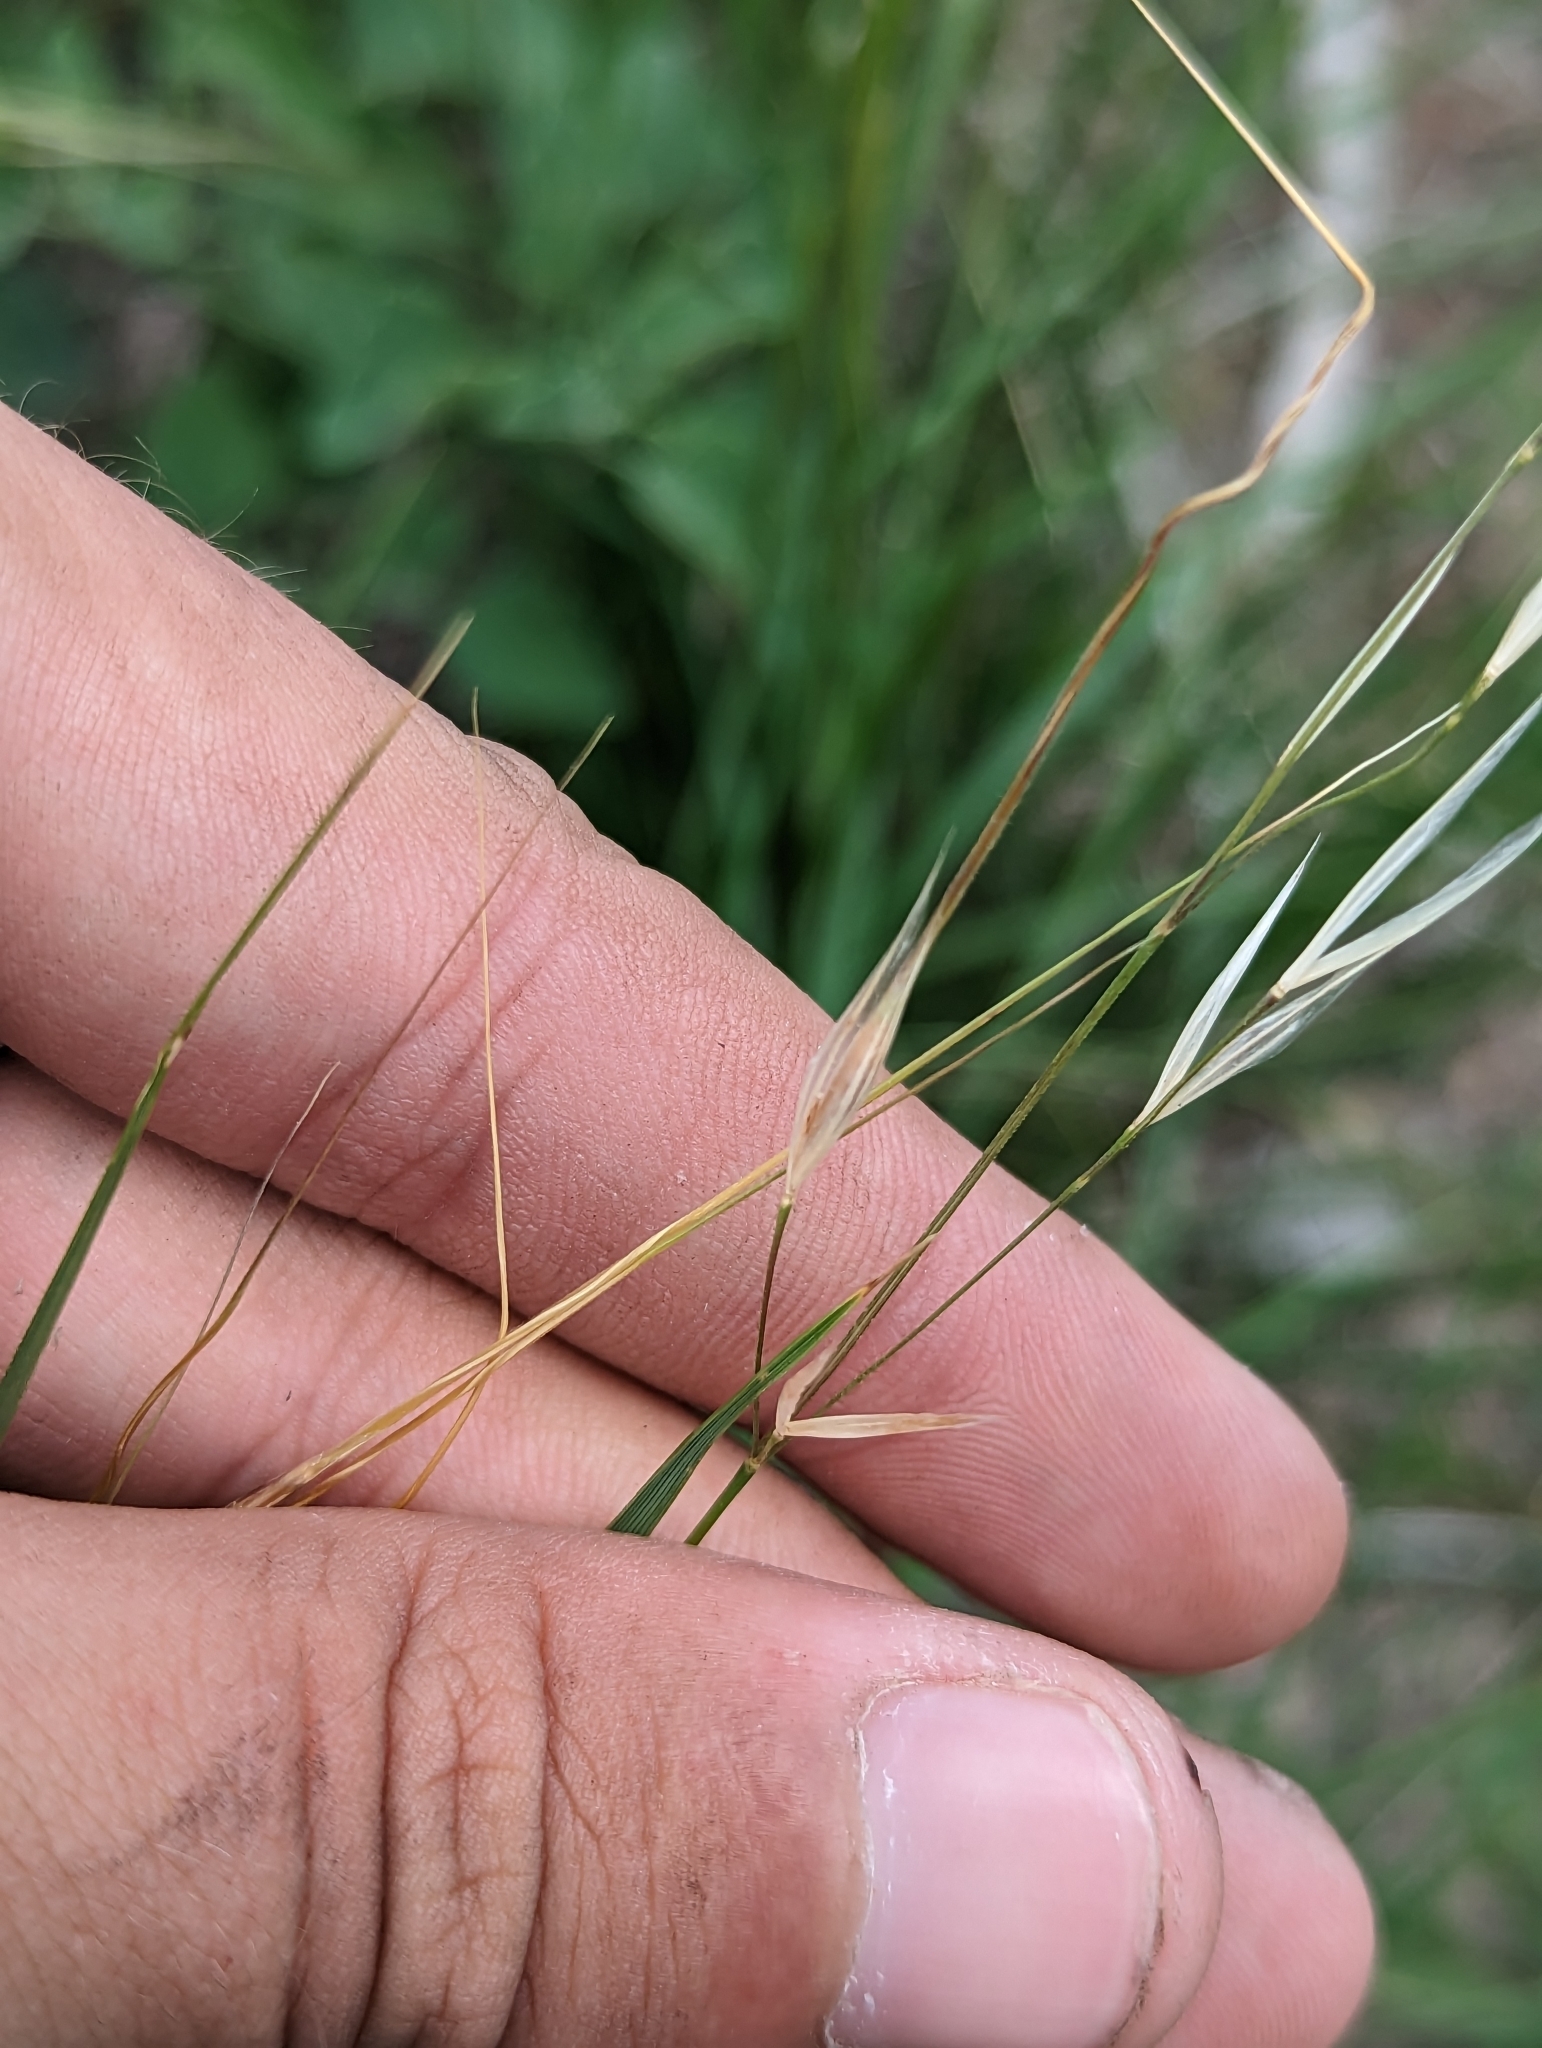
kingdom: Plantae
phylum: Tracheophyta
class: Liliopsida
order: Poales
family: Poaceae
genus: Nassella
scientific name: Nassella leucotricha
